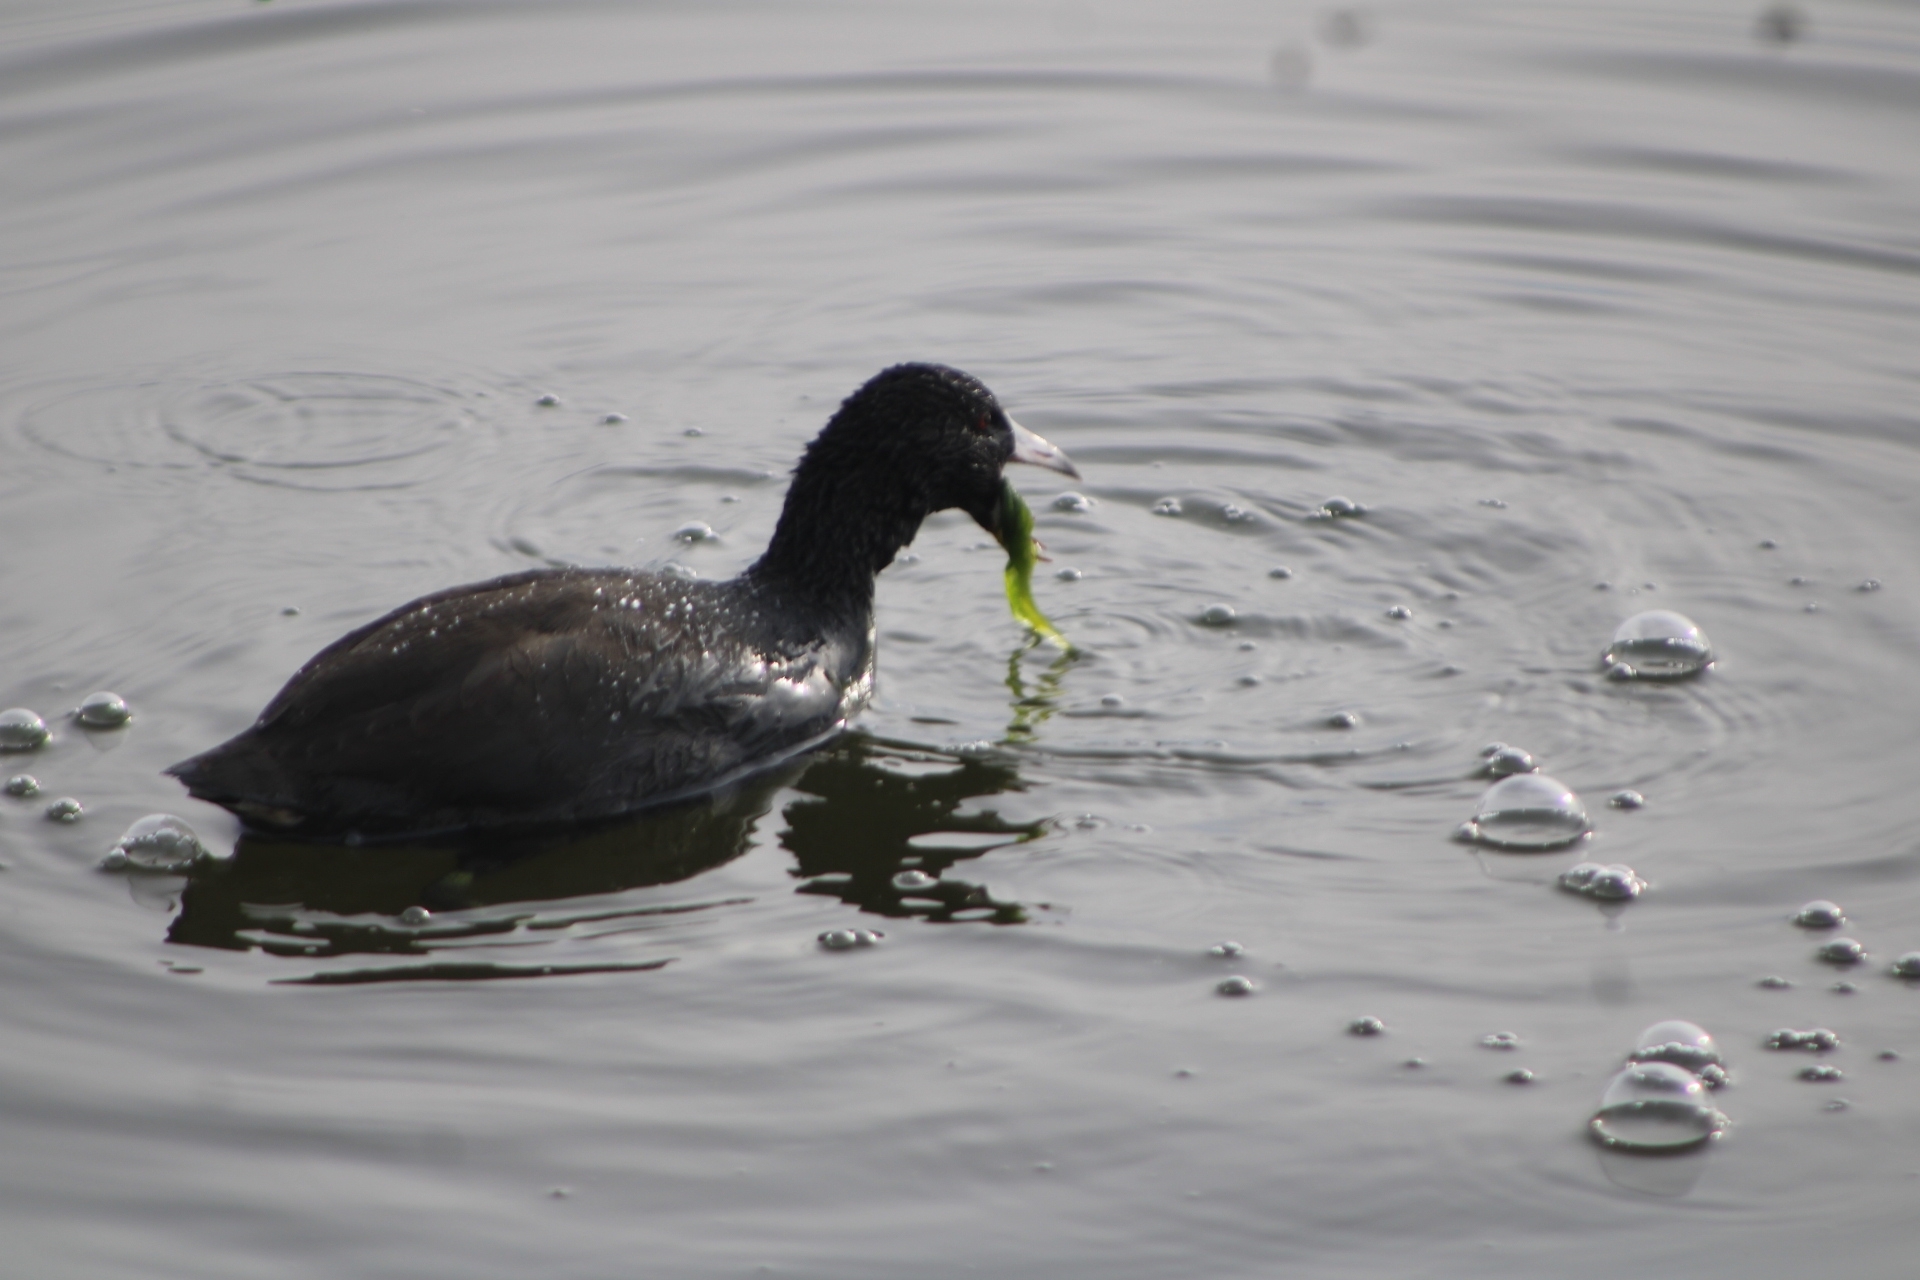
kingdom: Animalia
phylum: Chordata
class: Aves
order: Gruiformes
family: Rallidae
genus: Fulica
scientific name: Fulica americana
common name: American coot
